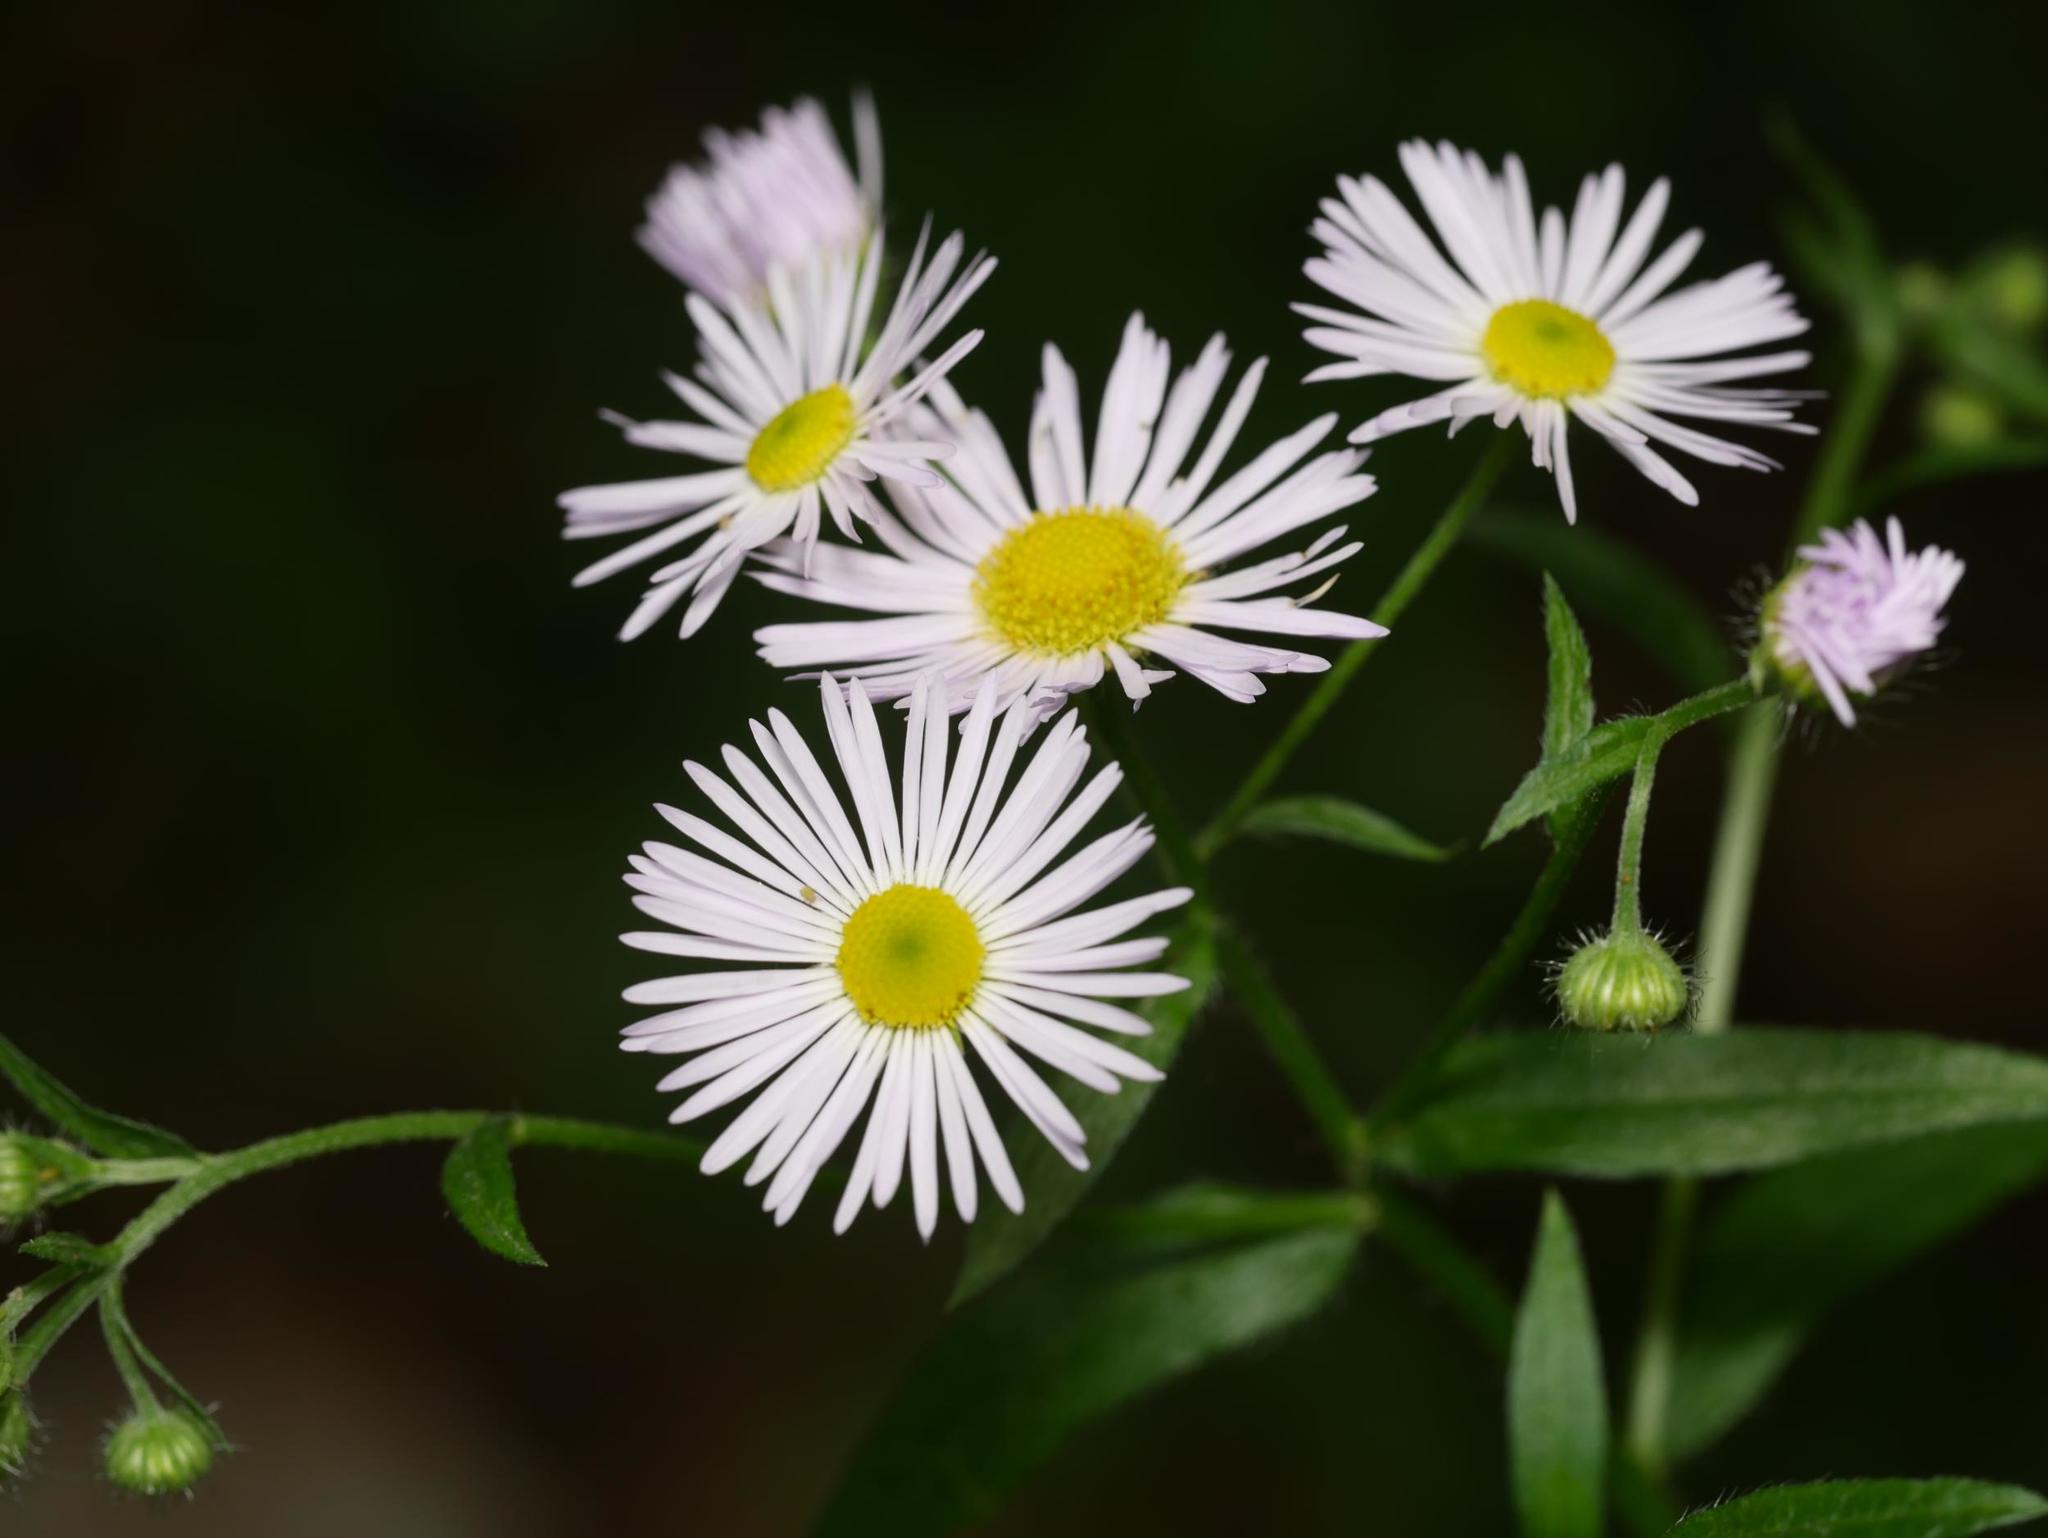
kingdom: Plantae
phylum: Tracheophyta
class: Magnoliopsida
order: Asterales
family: Asteraceae
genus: Erigeron
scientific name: Erigeron annuus
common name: Tall fleabane
